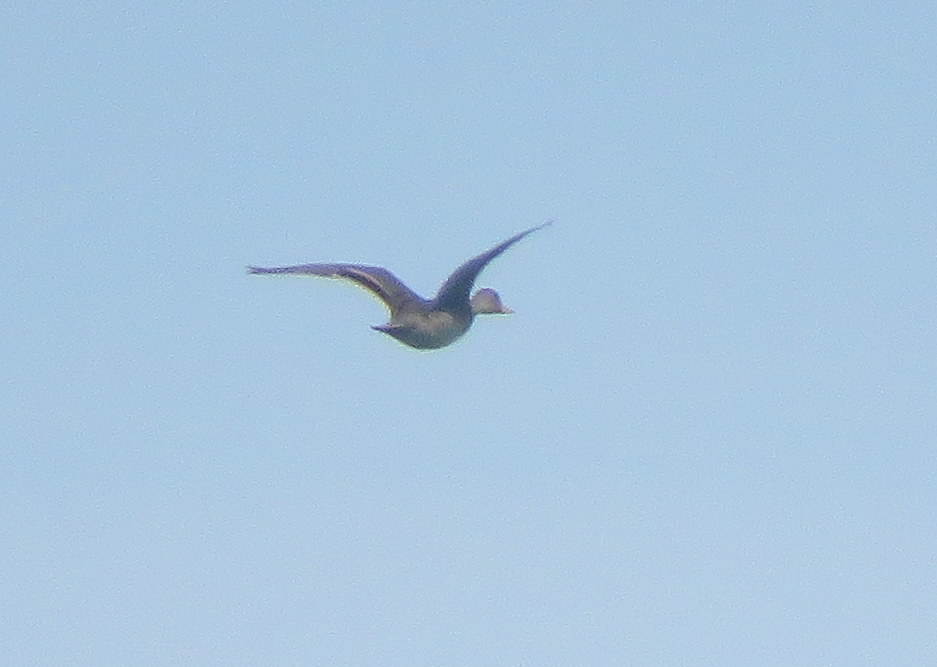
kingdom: Animalia
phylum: Chordata
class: Aves
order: Anseriformes
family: Anatidae
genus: Anas
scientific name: Anas georgica
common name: Yellow-billed pintail
